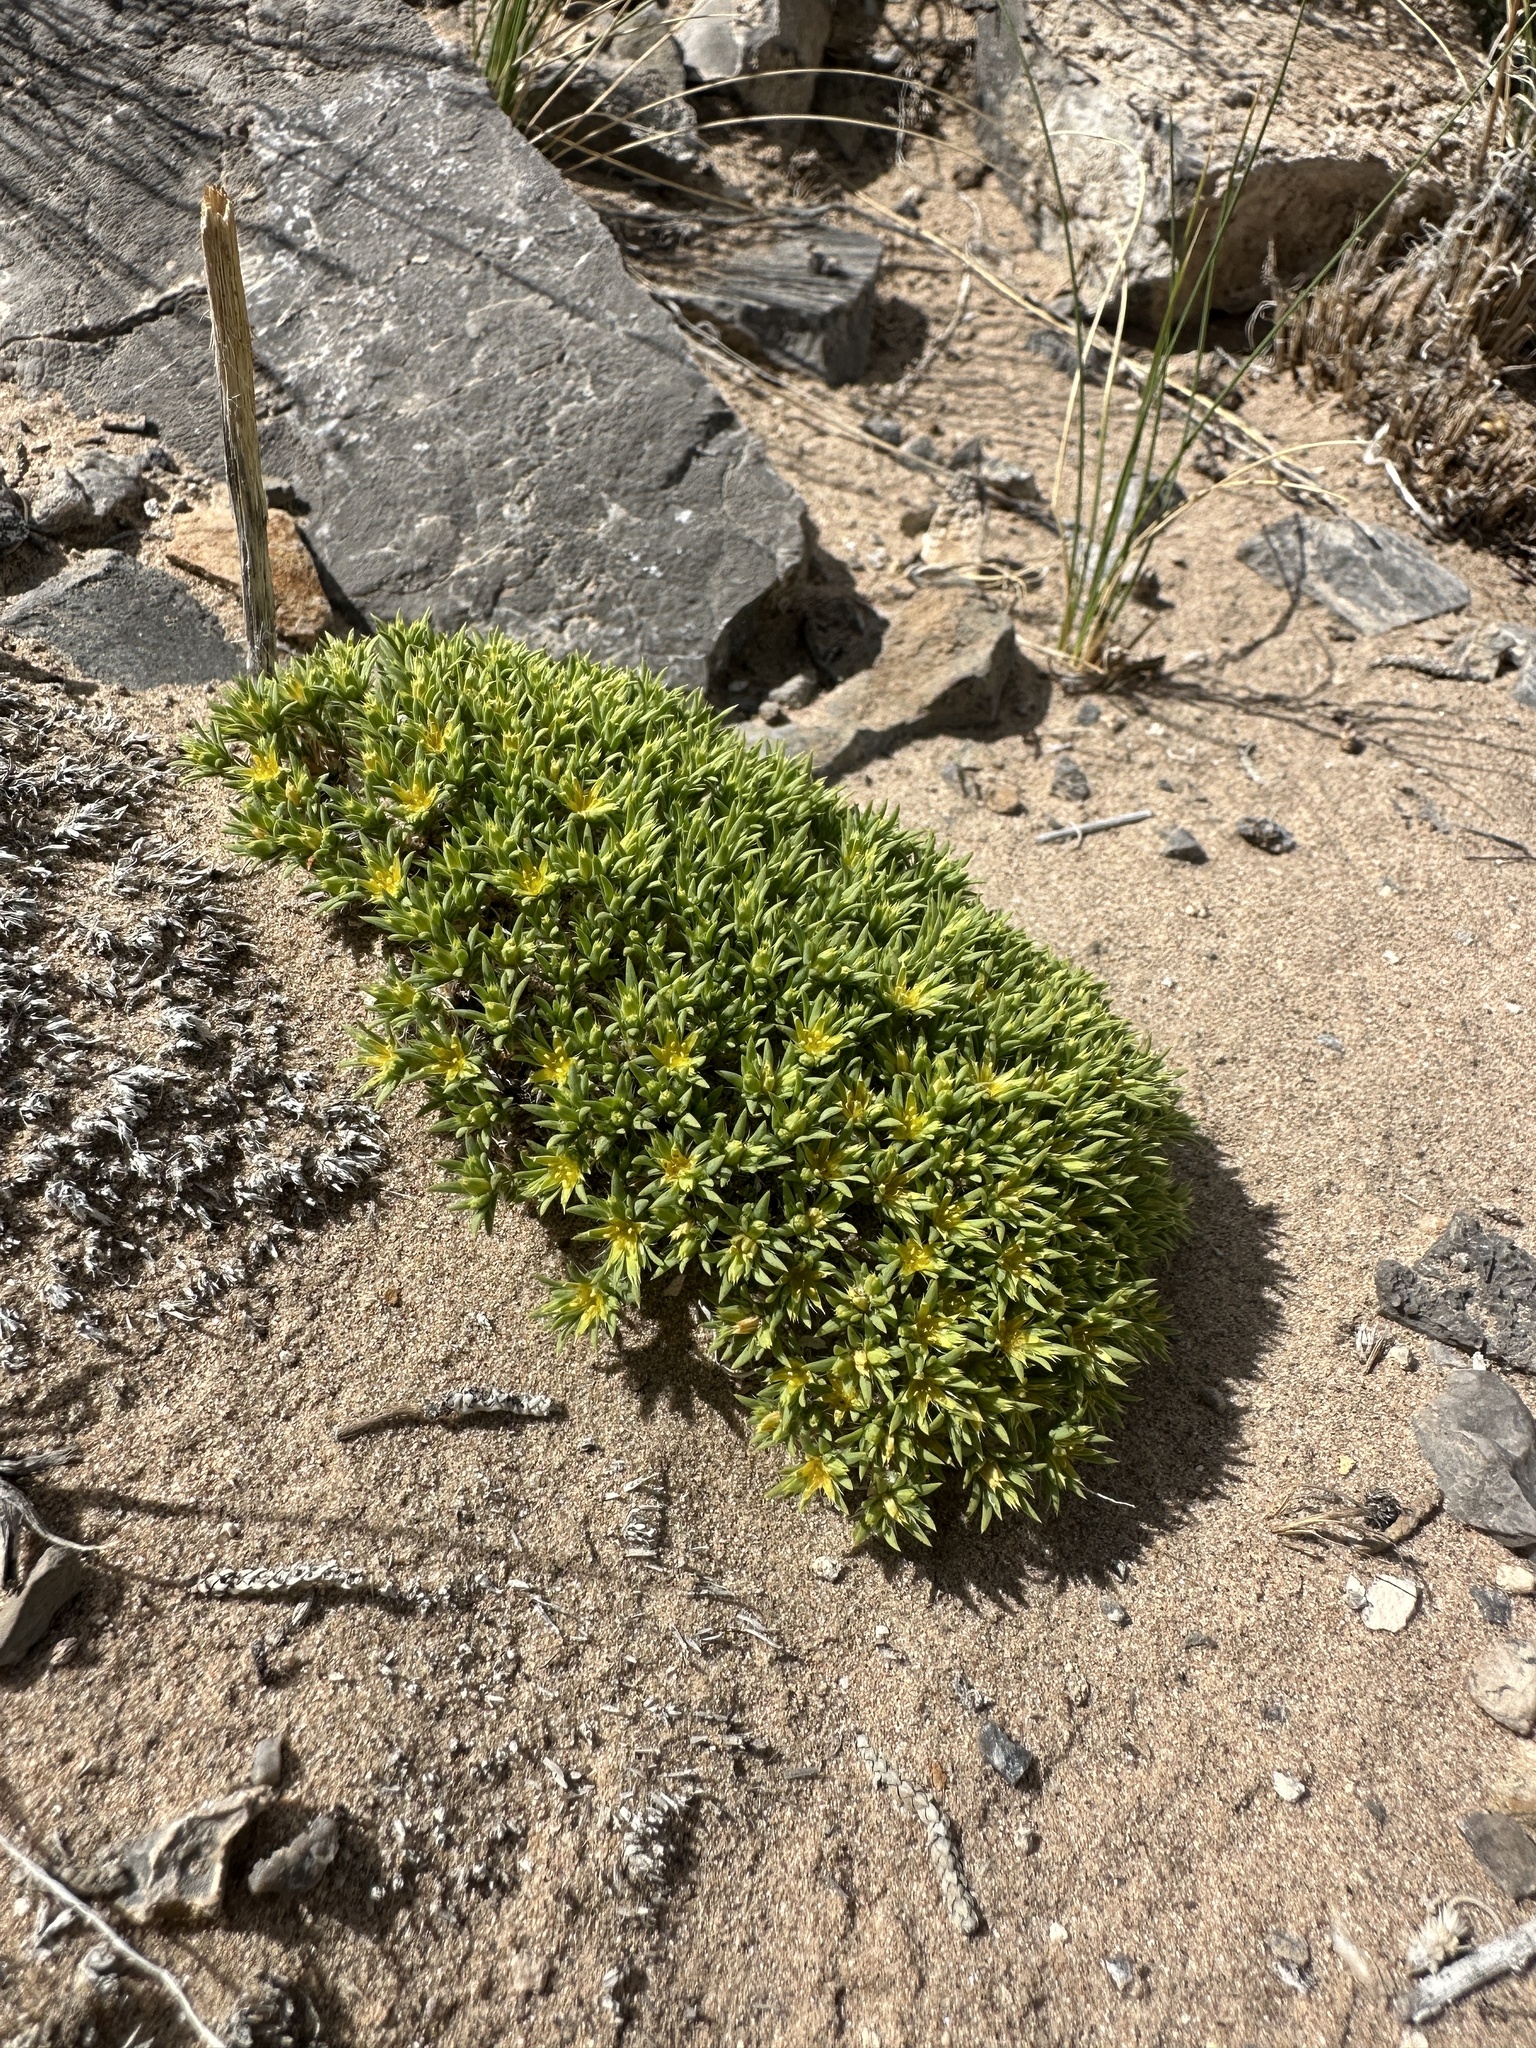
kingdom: Plantae
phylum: Tracheophyta
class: Magnoliopsida
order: Caryophyllales
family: Caryophyllaceae
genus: Paronychia
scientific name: Paronychia sessiliflora
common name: Creeping nailwort
